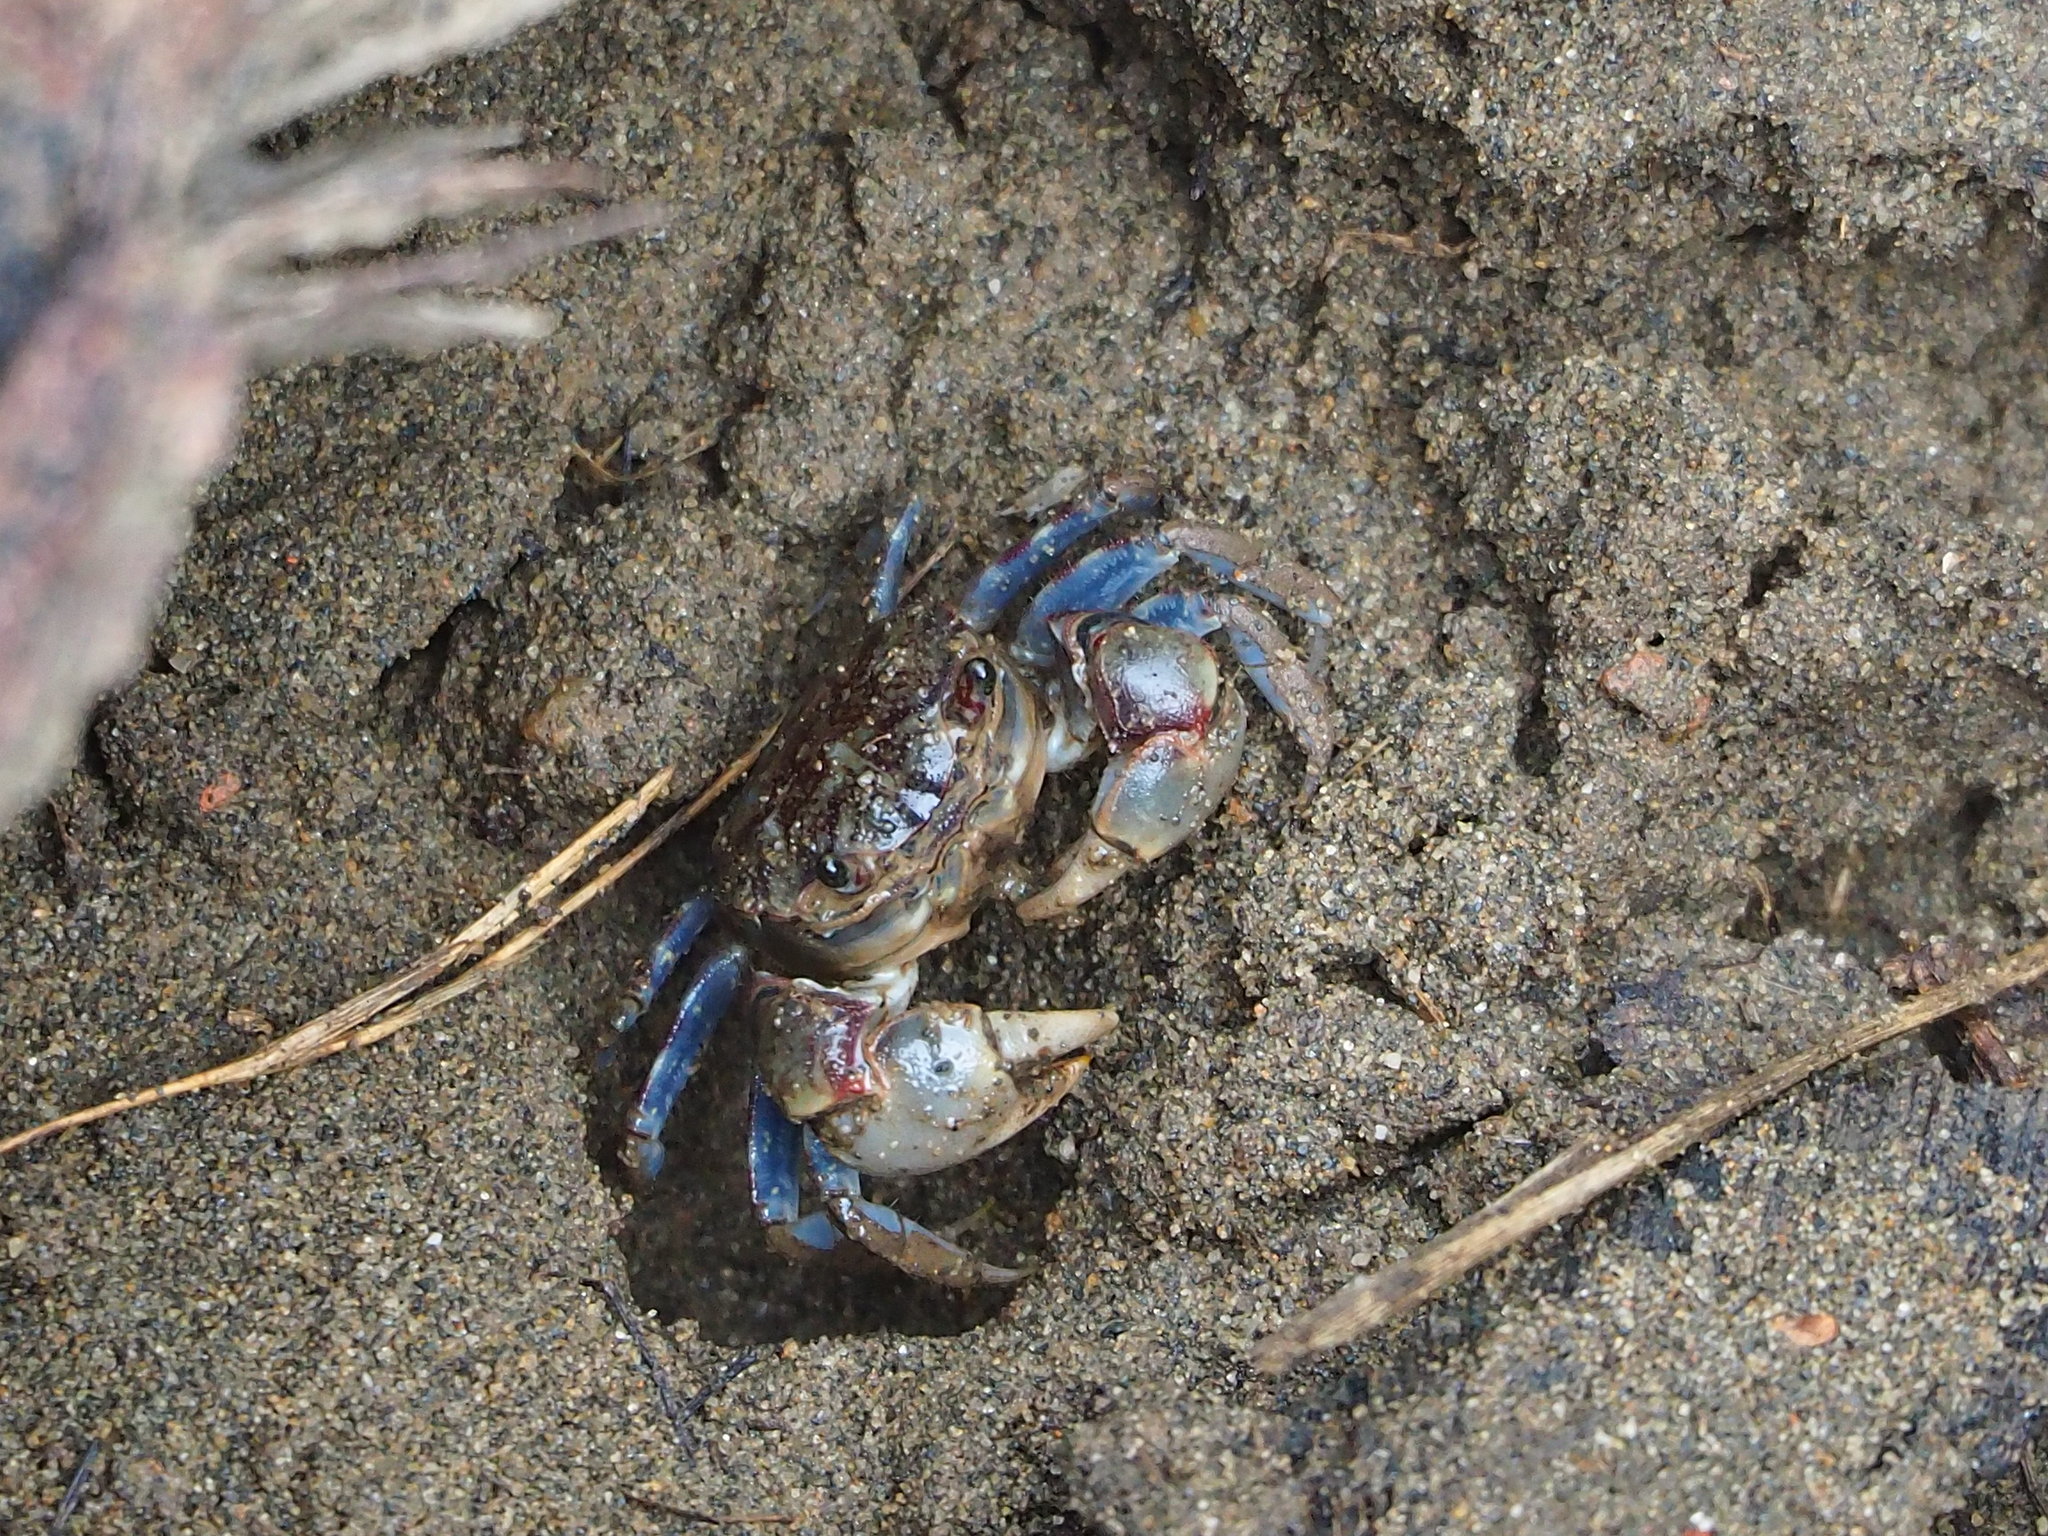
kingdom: Animalia
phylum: Arthropoda
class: Malacostraca
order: Decapoda
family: Varunidae
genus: Pseudohelice
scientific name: Pseudohelice subquadrata
